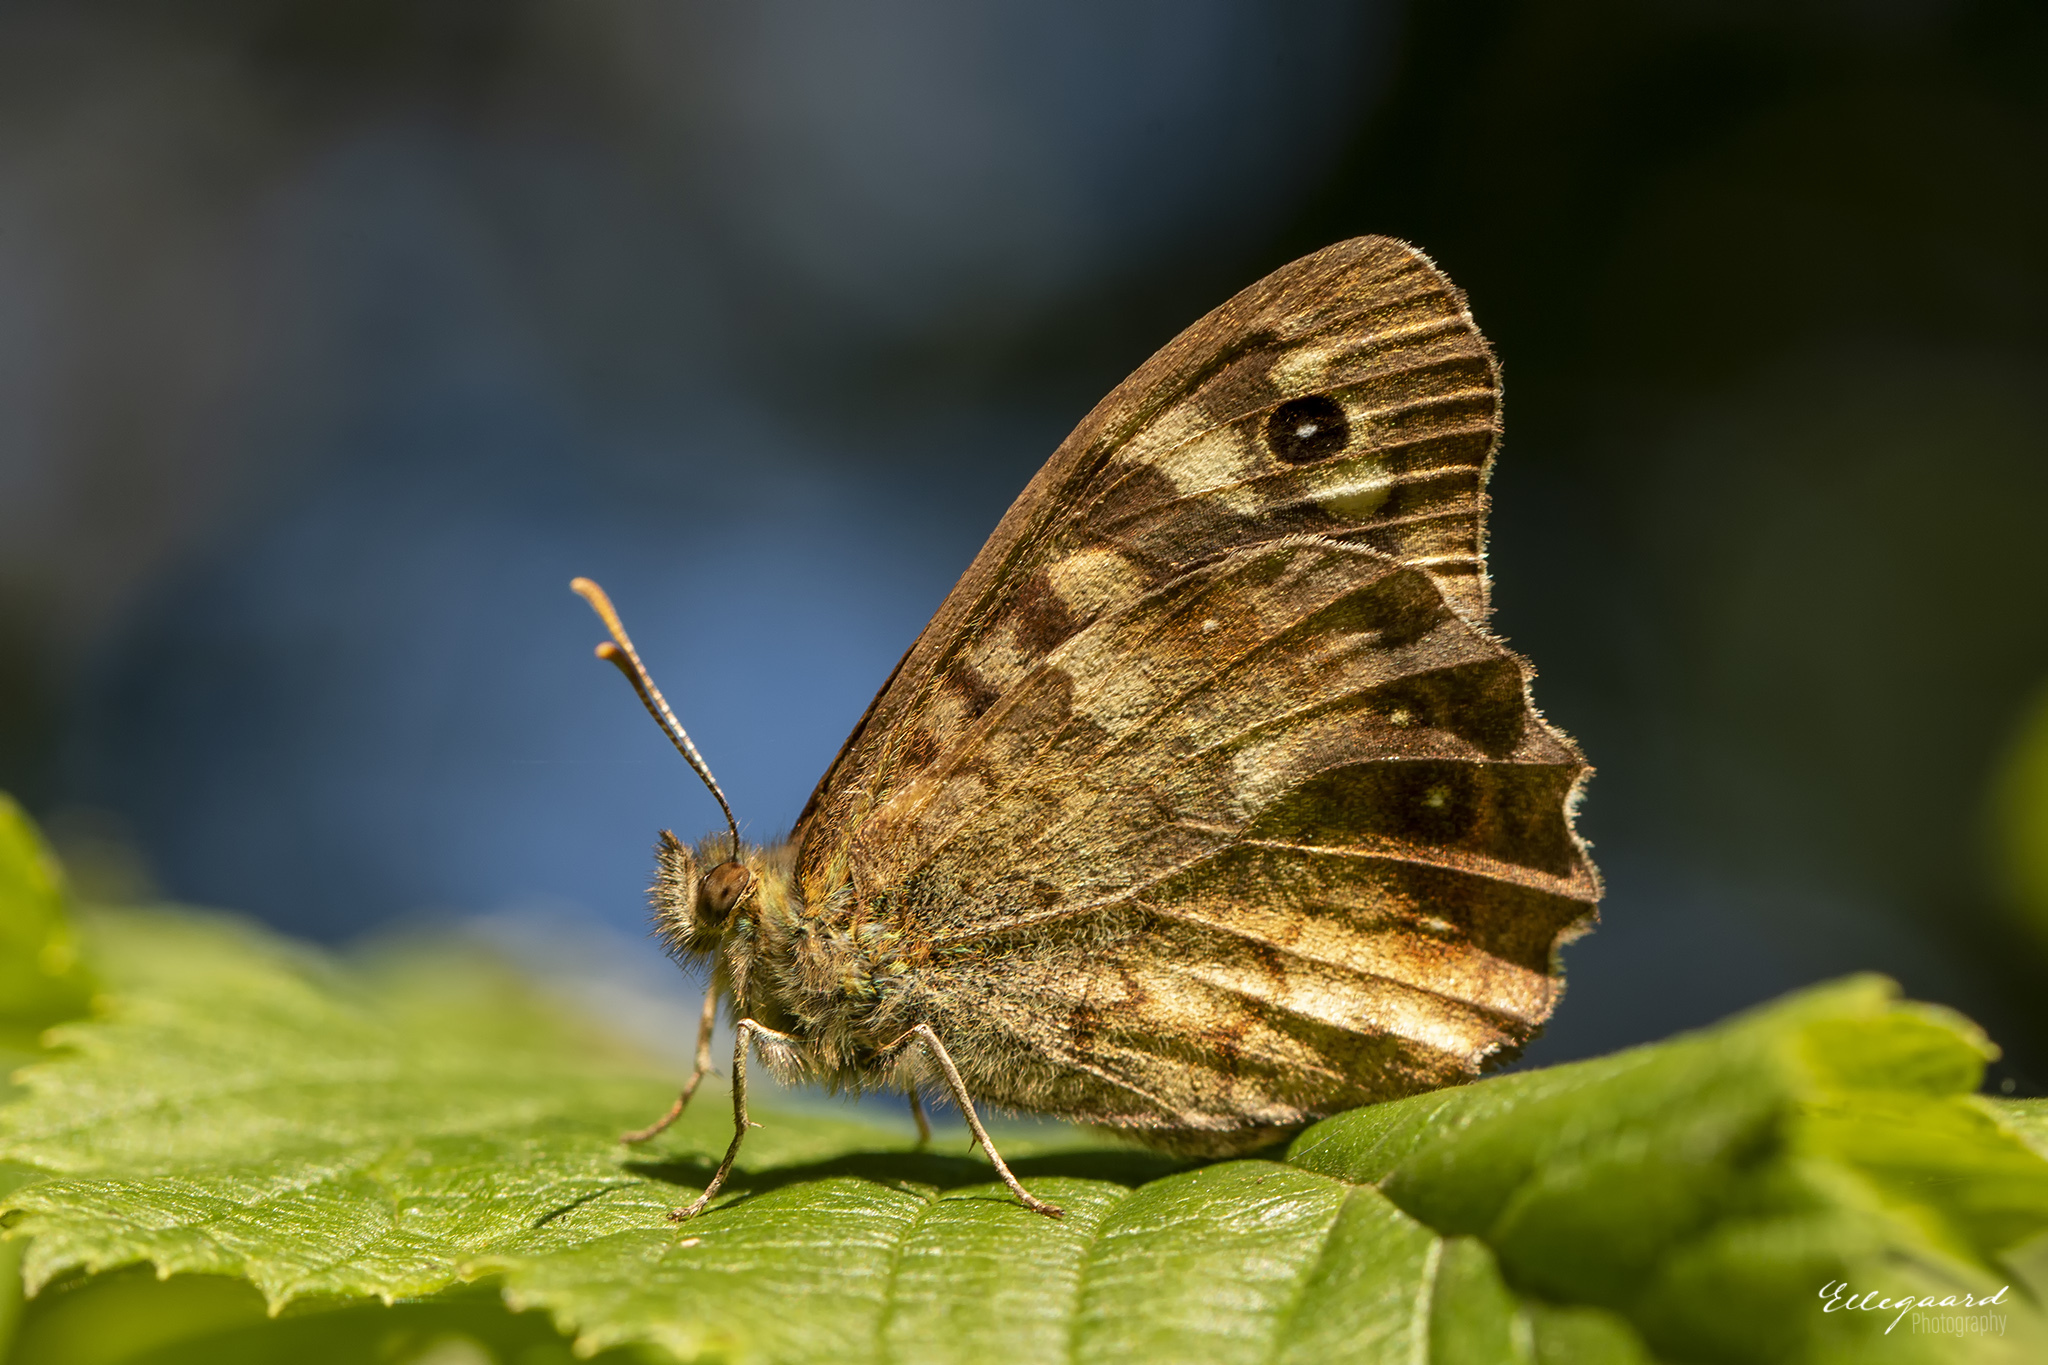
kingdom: Animalia
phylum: Arthropoda
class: Insecta
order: Lepidoptera
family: Nymphalidae
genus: Pararge
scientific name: Pararge aegeria
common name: Speckled wood
